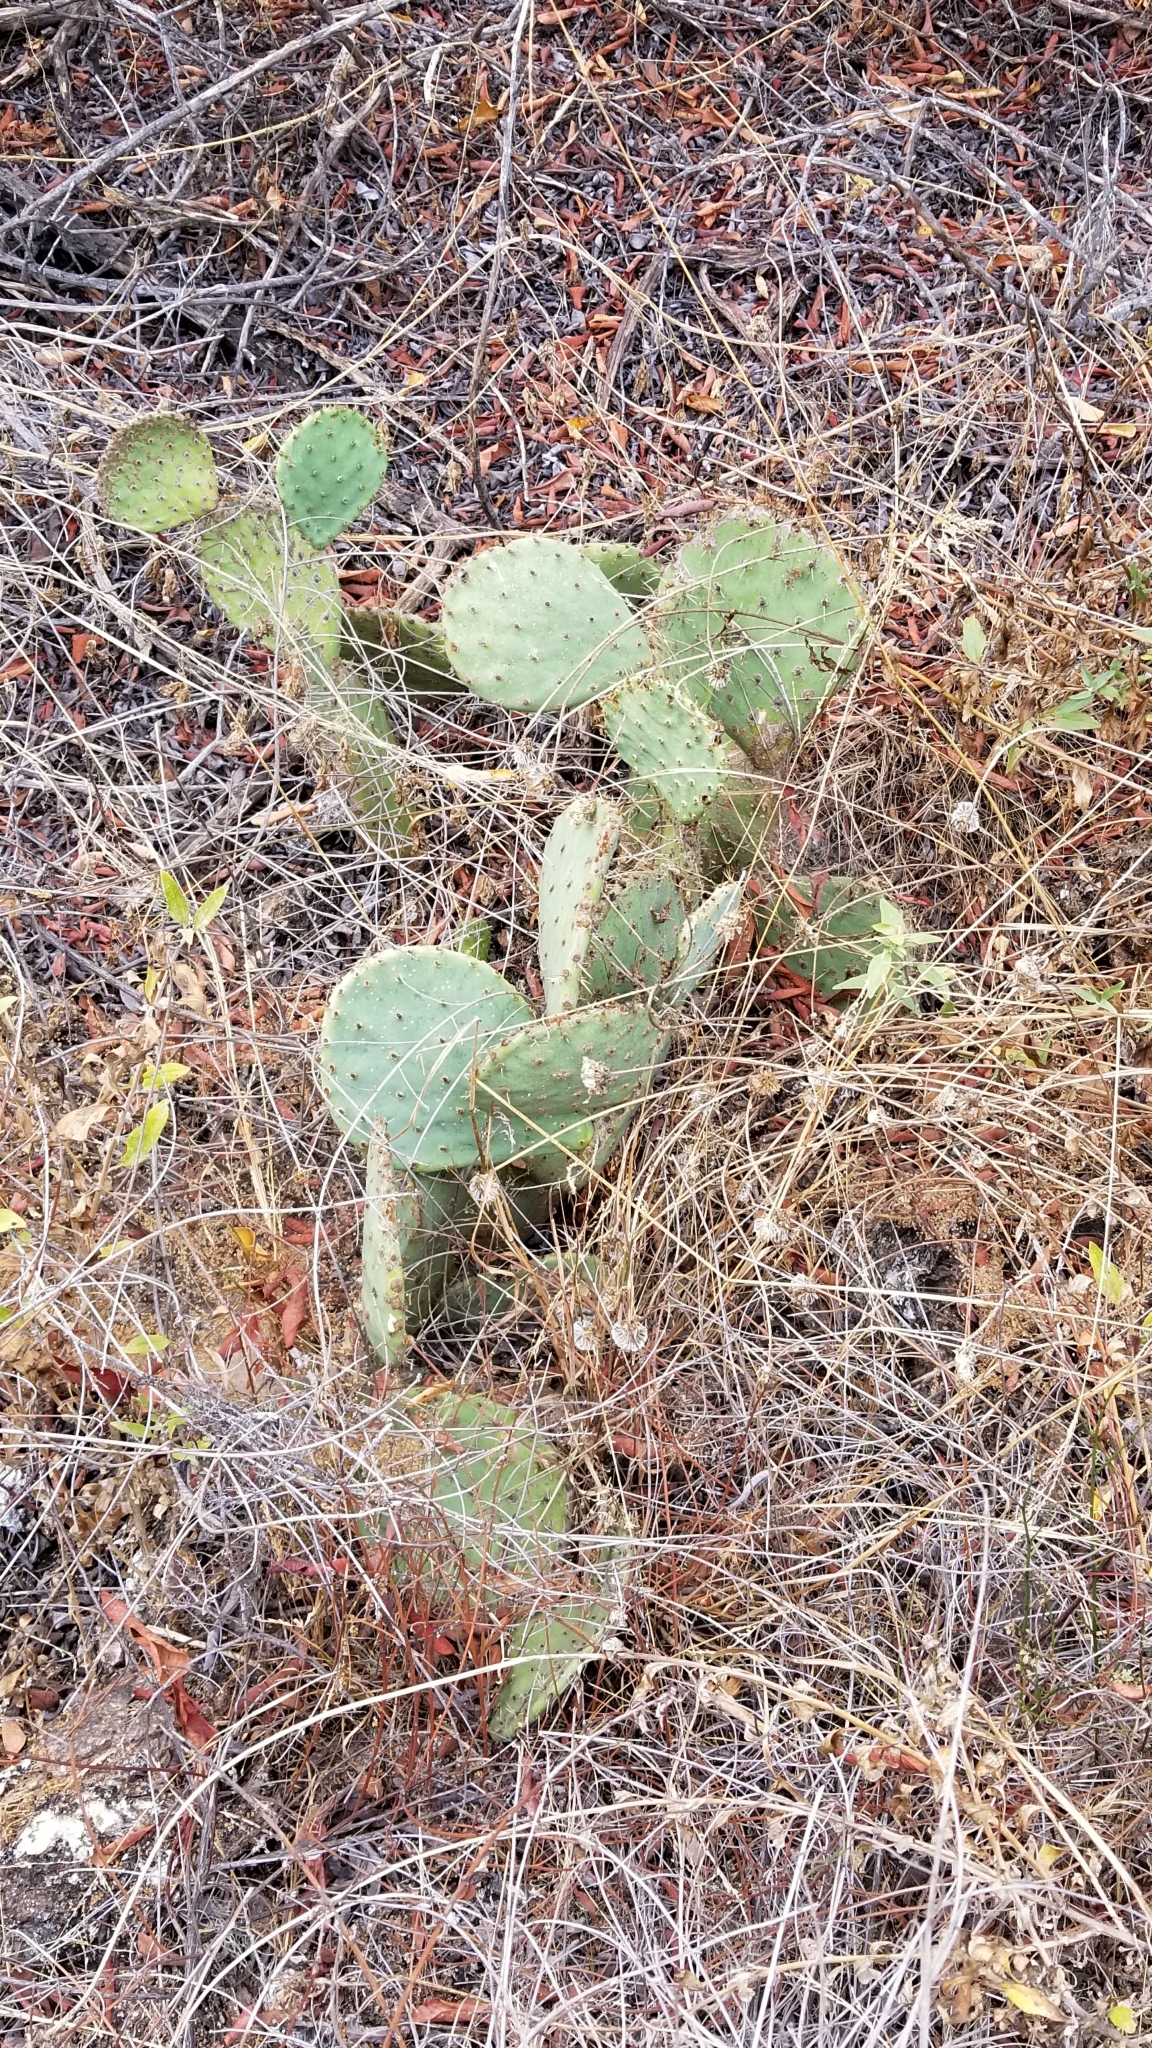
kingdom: Plantae
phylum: Tracheophyta
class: Magnoliopsida
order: Caryophyllales
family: Cactaceae
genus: Opuntia
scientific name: Opuntia littoralis
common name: Coastal prickly-pear
